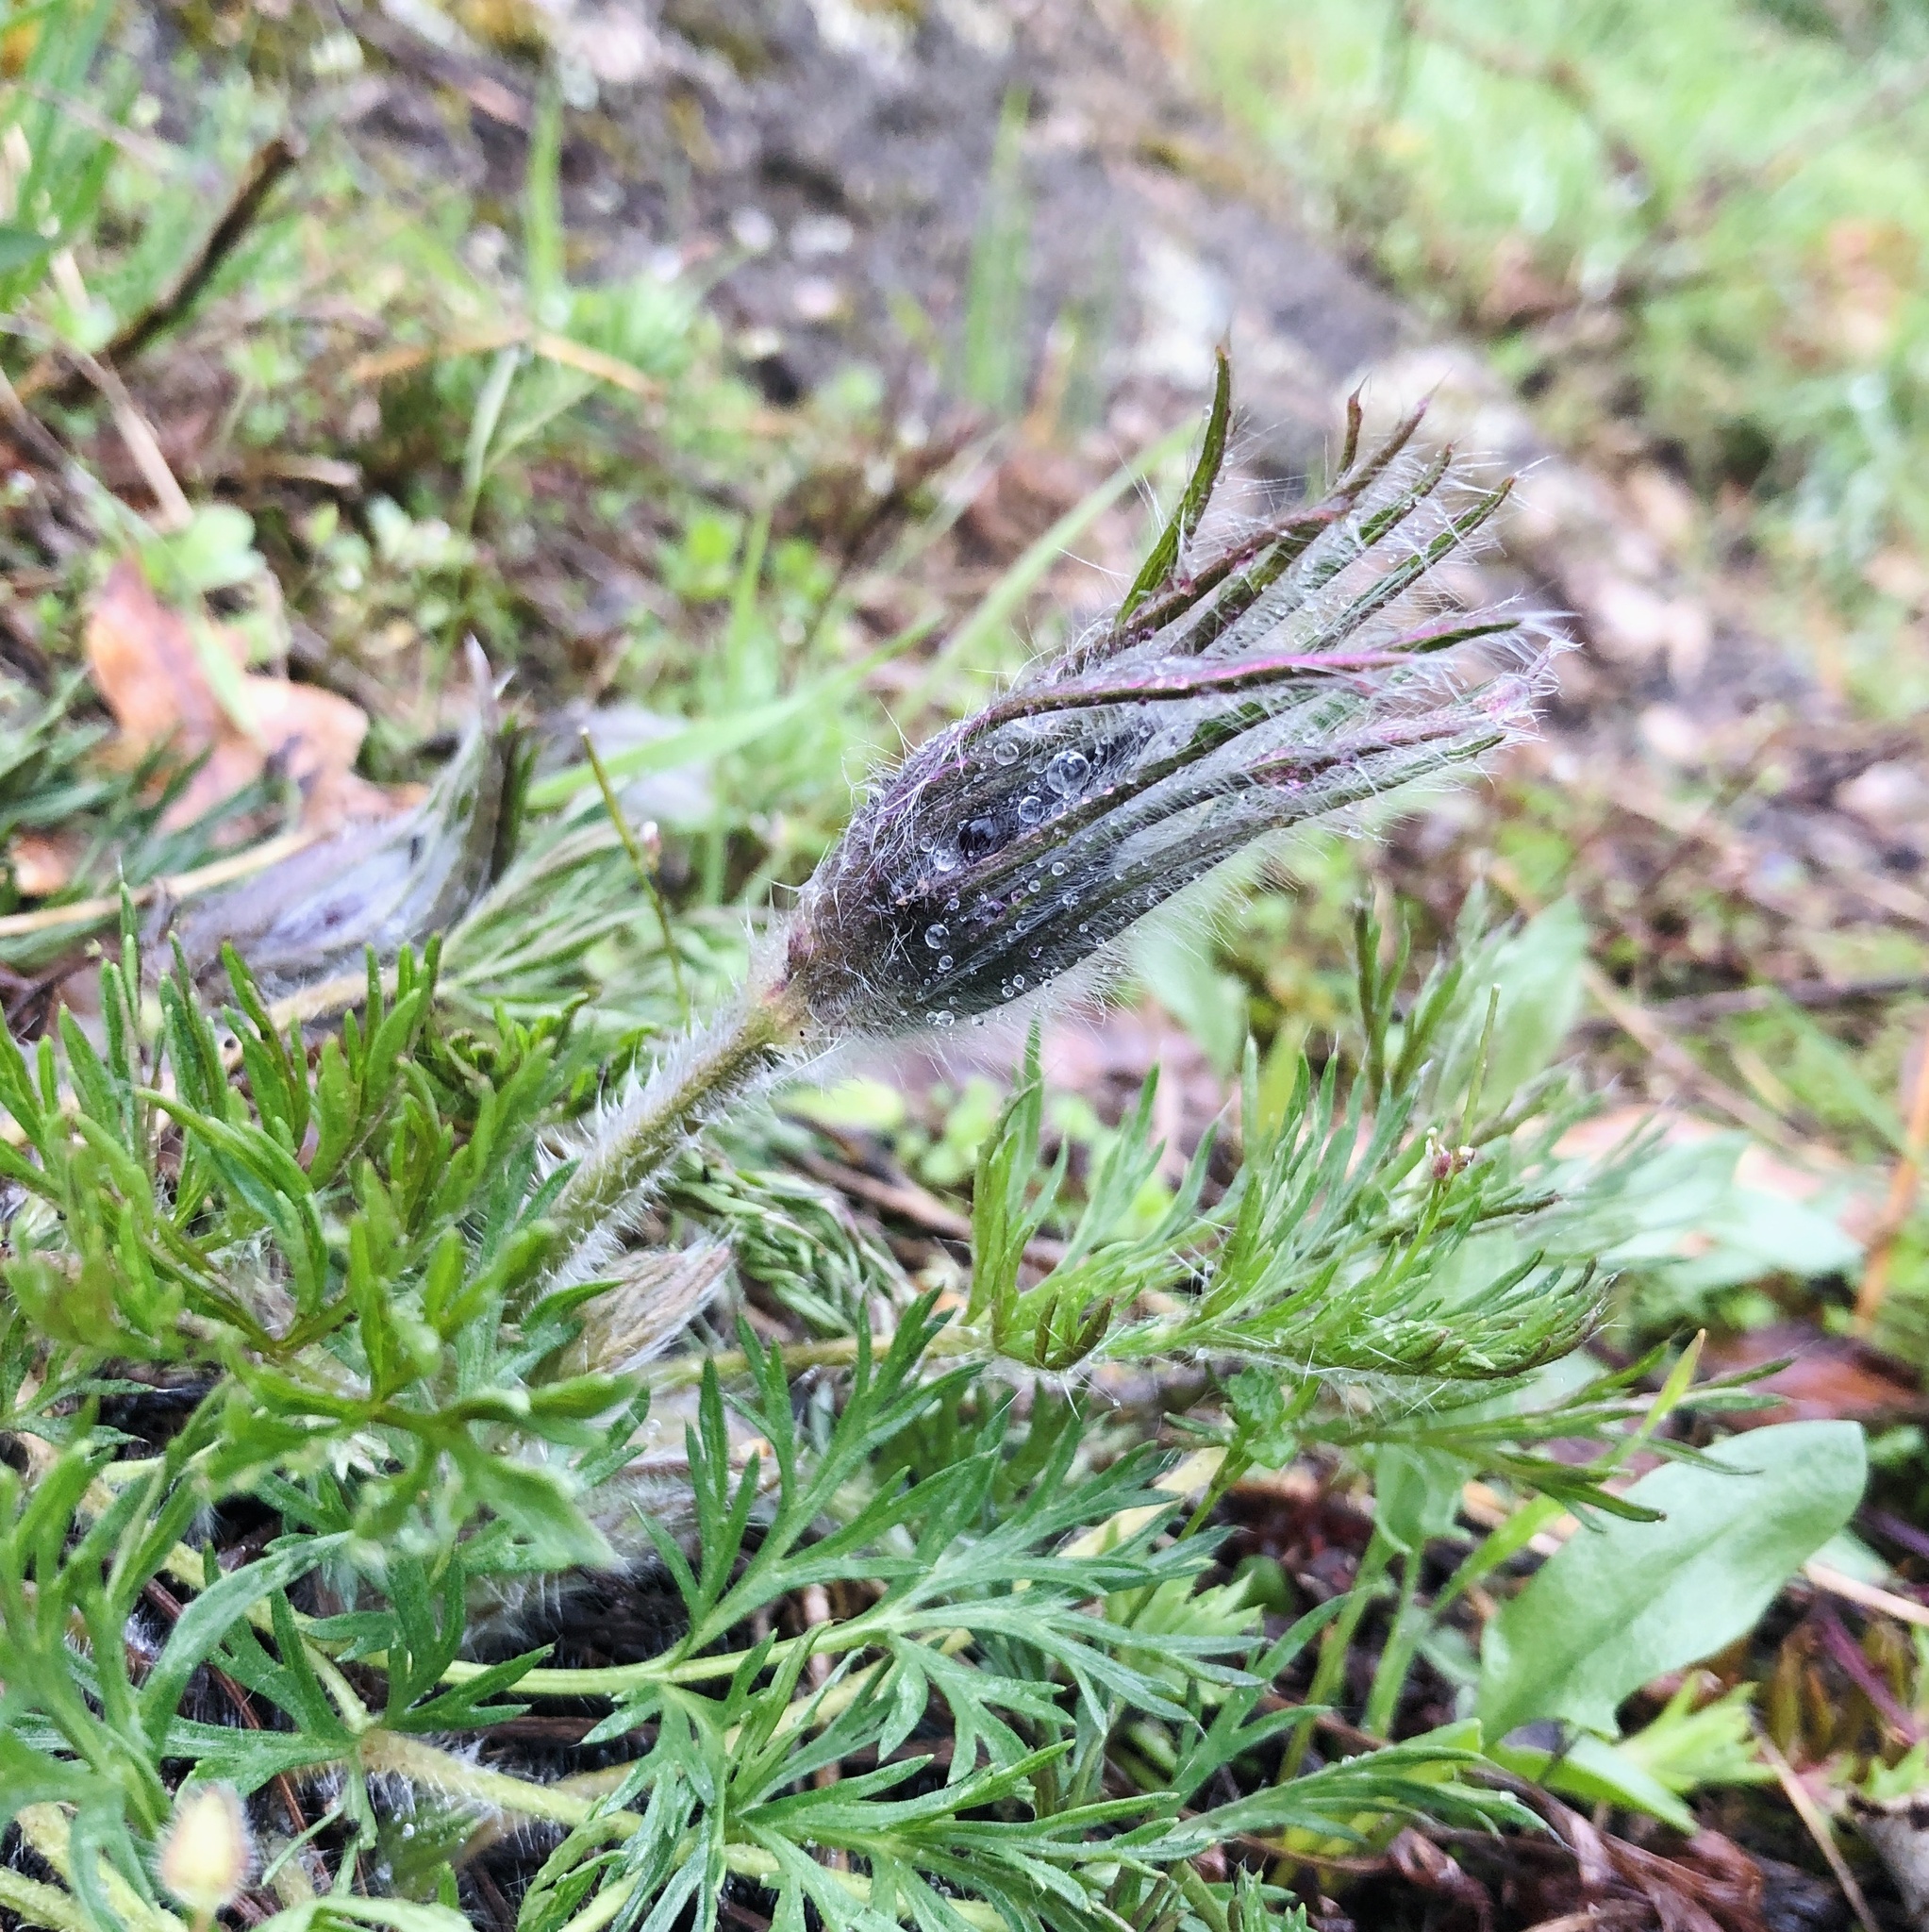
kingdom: Plantae
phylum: Tracheophyta
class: Magnoliopsida
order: Ranunculales
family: Ranunculaceae
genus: Pulsatilla
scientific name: Pulsatilla vulgaris
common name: Pasqueflower
